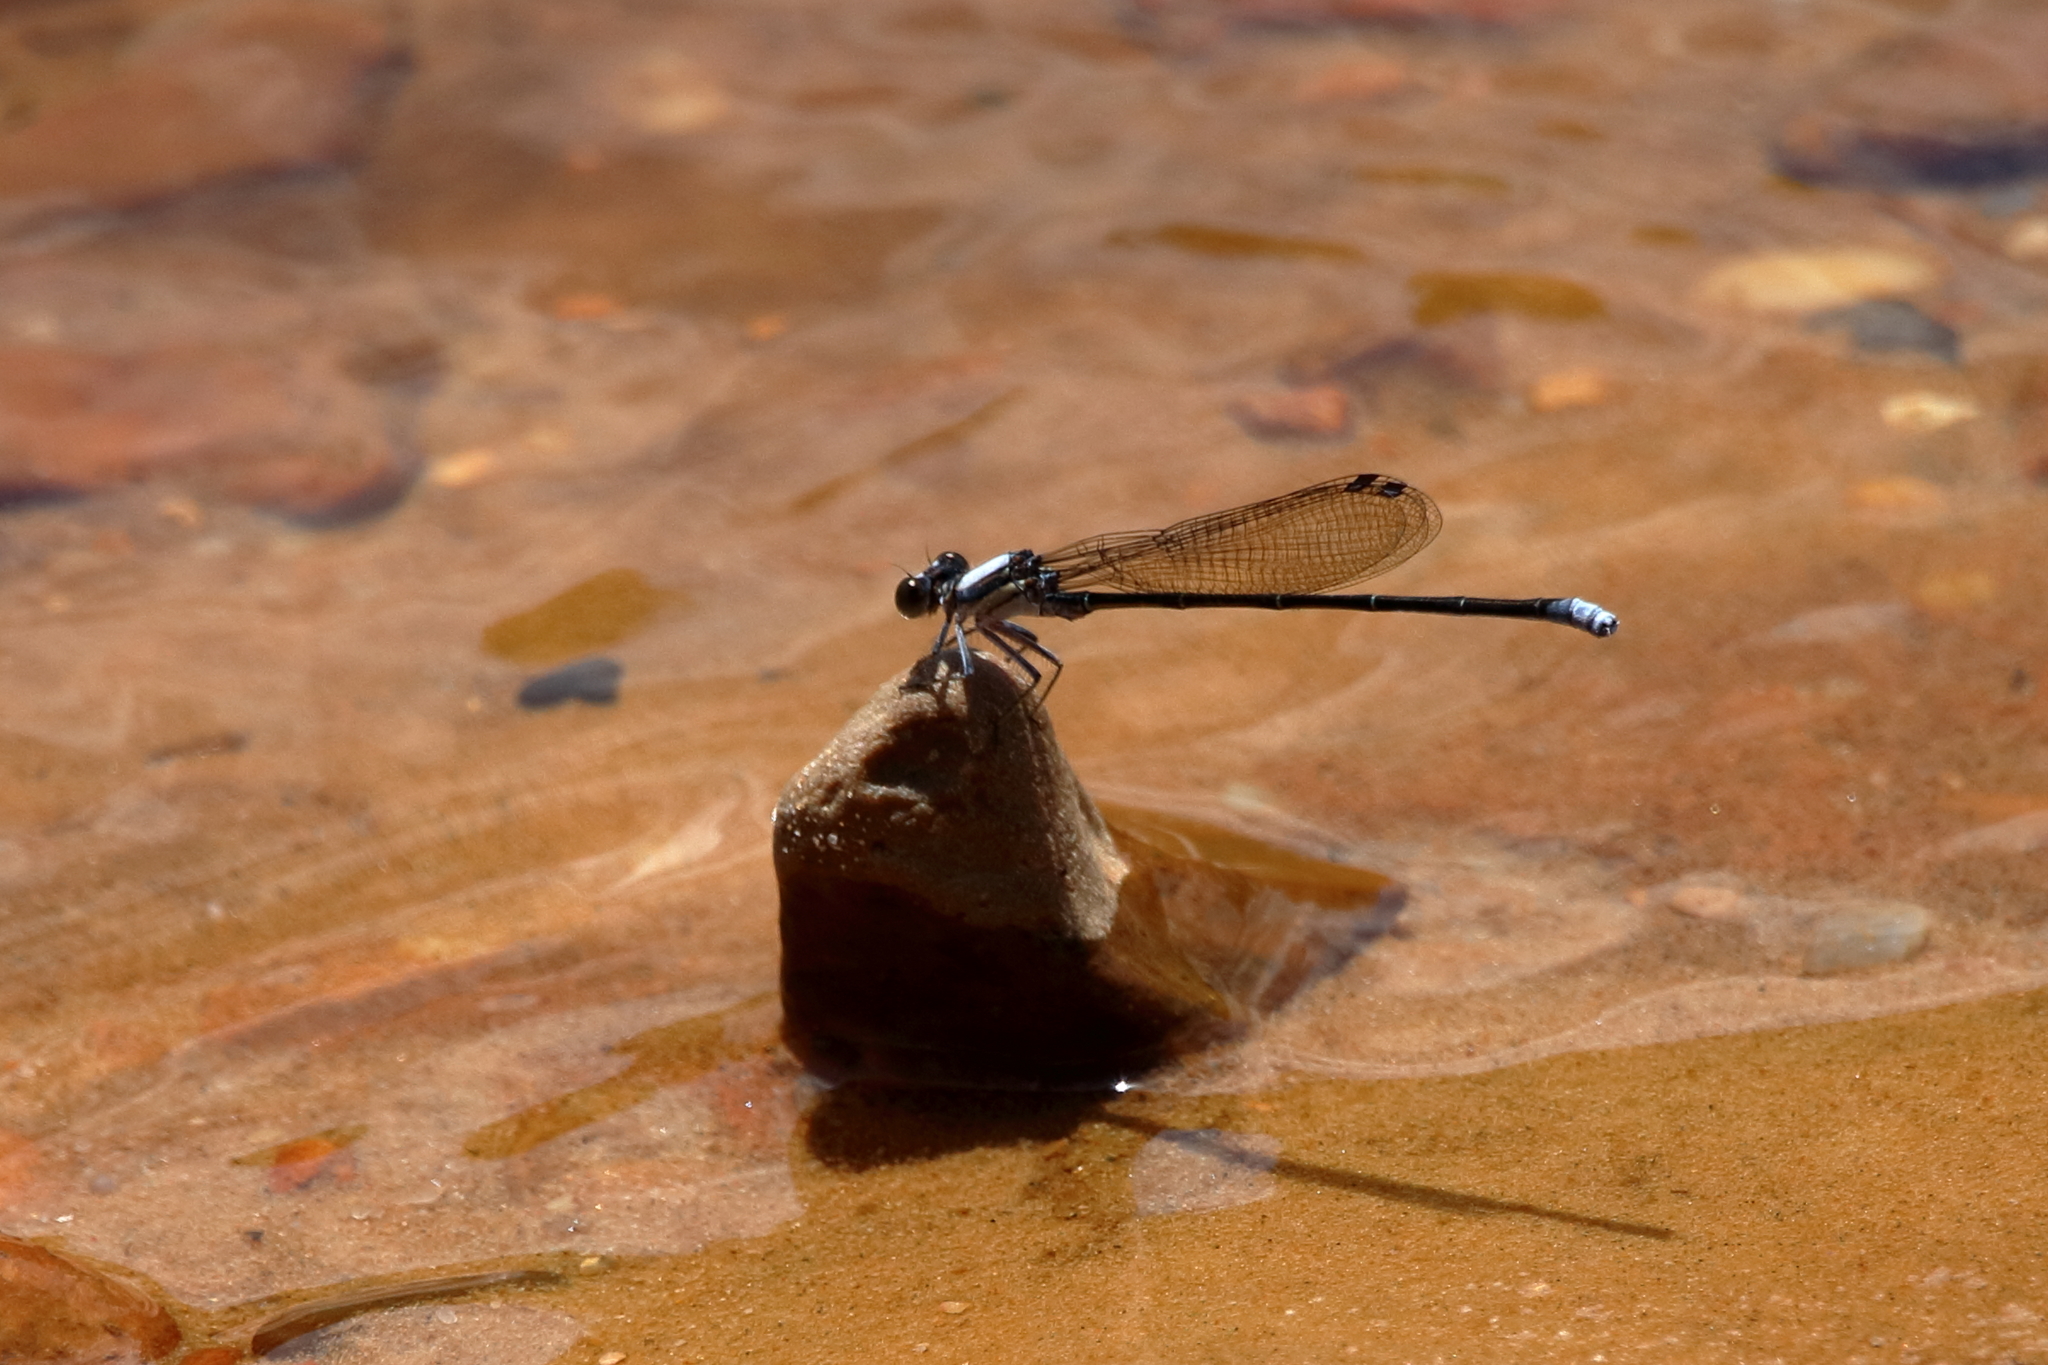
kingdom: Animalia
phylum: Arthropoda
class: Insecta
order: Odonata
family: Coenagrionidae
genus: Argia
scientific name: Argia moesta
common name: Powdered dancer
